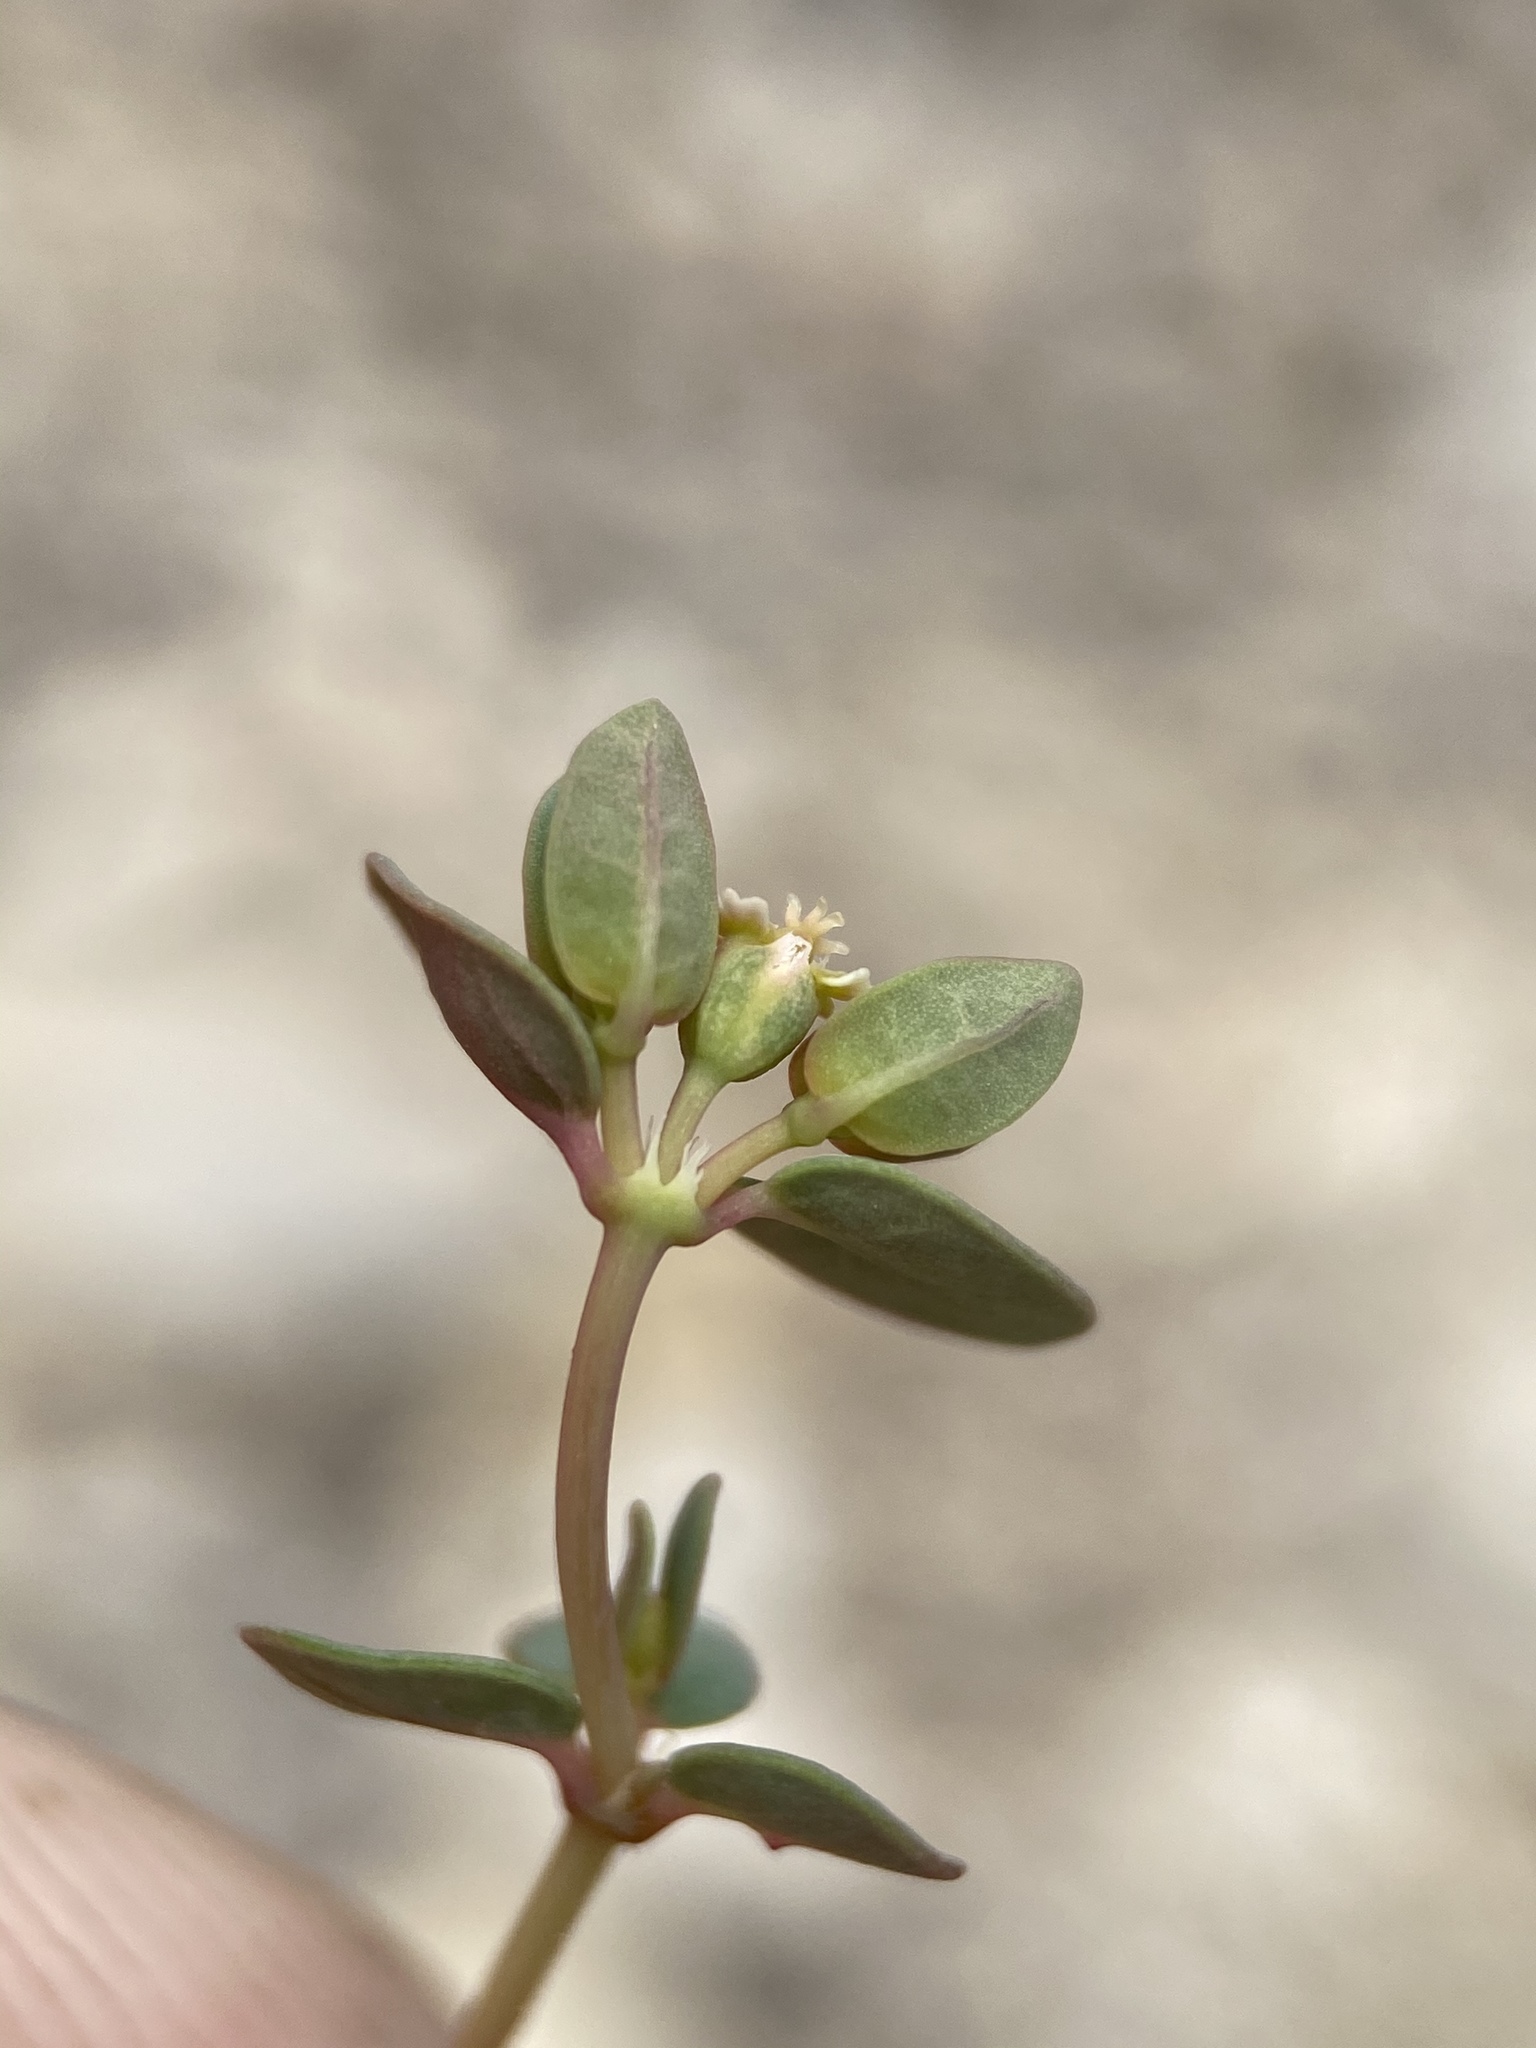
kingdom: Plantae
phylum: Tracheophyta
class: Magnoliopsida
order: Malpighiales
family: Euphorbiaceae
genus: Euphorbia
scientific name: Euphorbia fendleri
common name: Fendler's euphorbia
